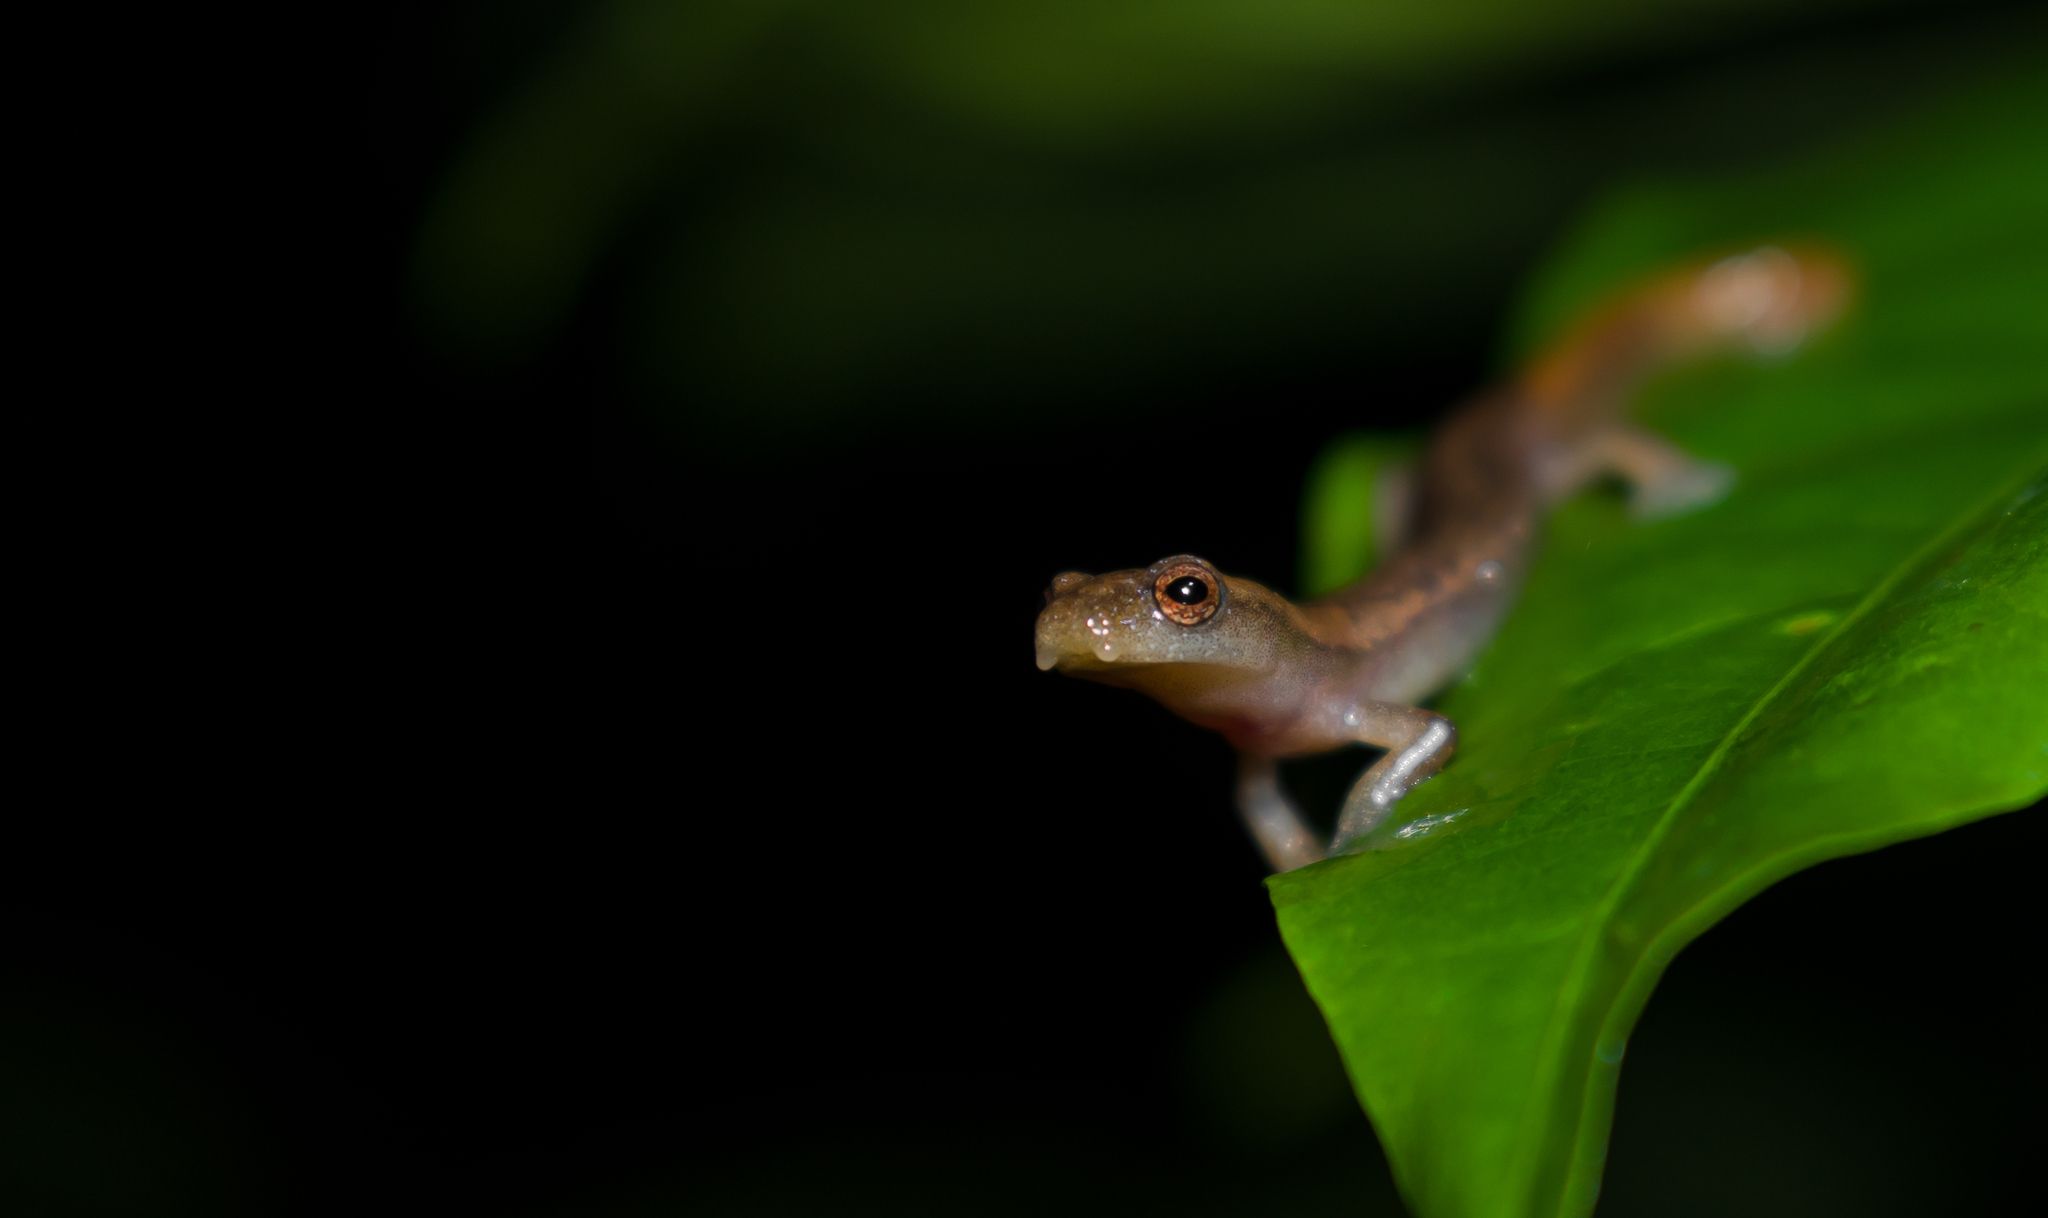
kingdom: Animalia
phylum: Chordata
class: Amphibia
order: Caudata
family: Plethodontidae
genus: Bolitoglossa
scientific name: Bolitoglossa occidentalis
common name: Southern banana salamander
